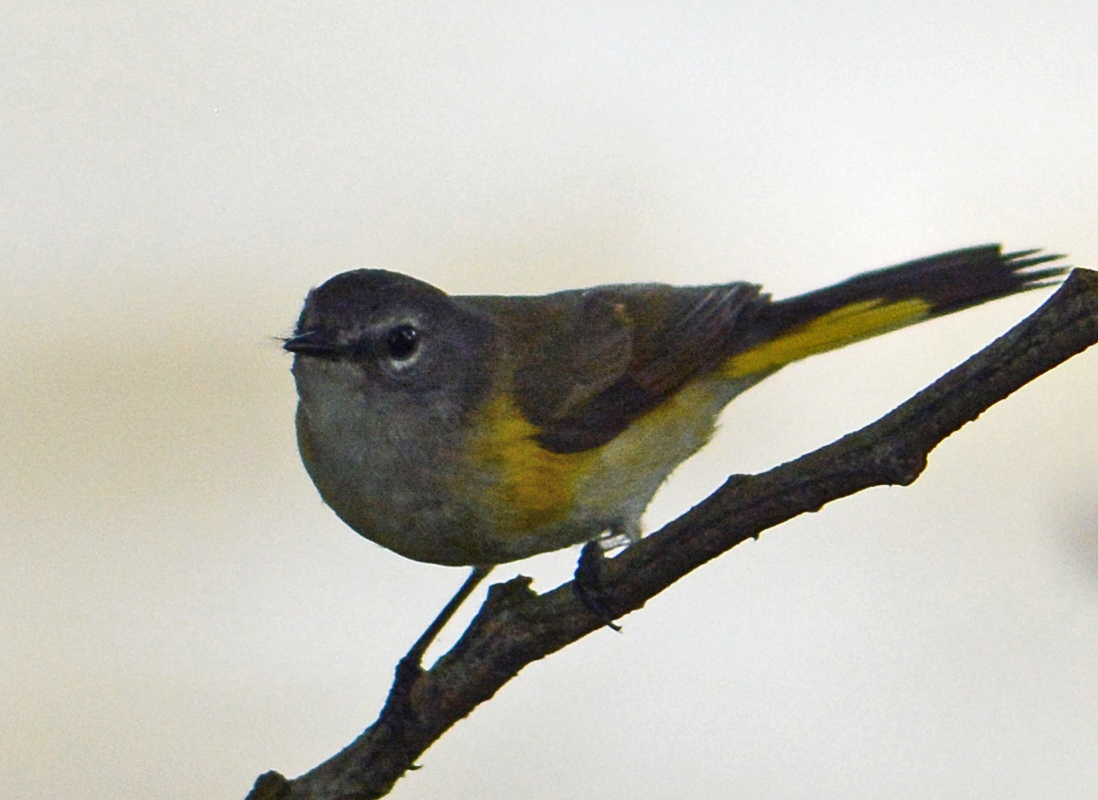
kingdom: Animalia
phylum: Chordata
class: Aves
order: Passeriformes
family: Parulidae
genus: Setophaga
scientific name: Setophaga ruticilla
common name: American redstart
